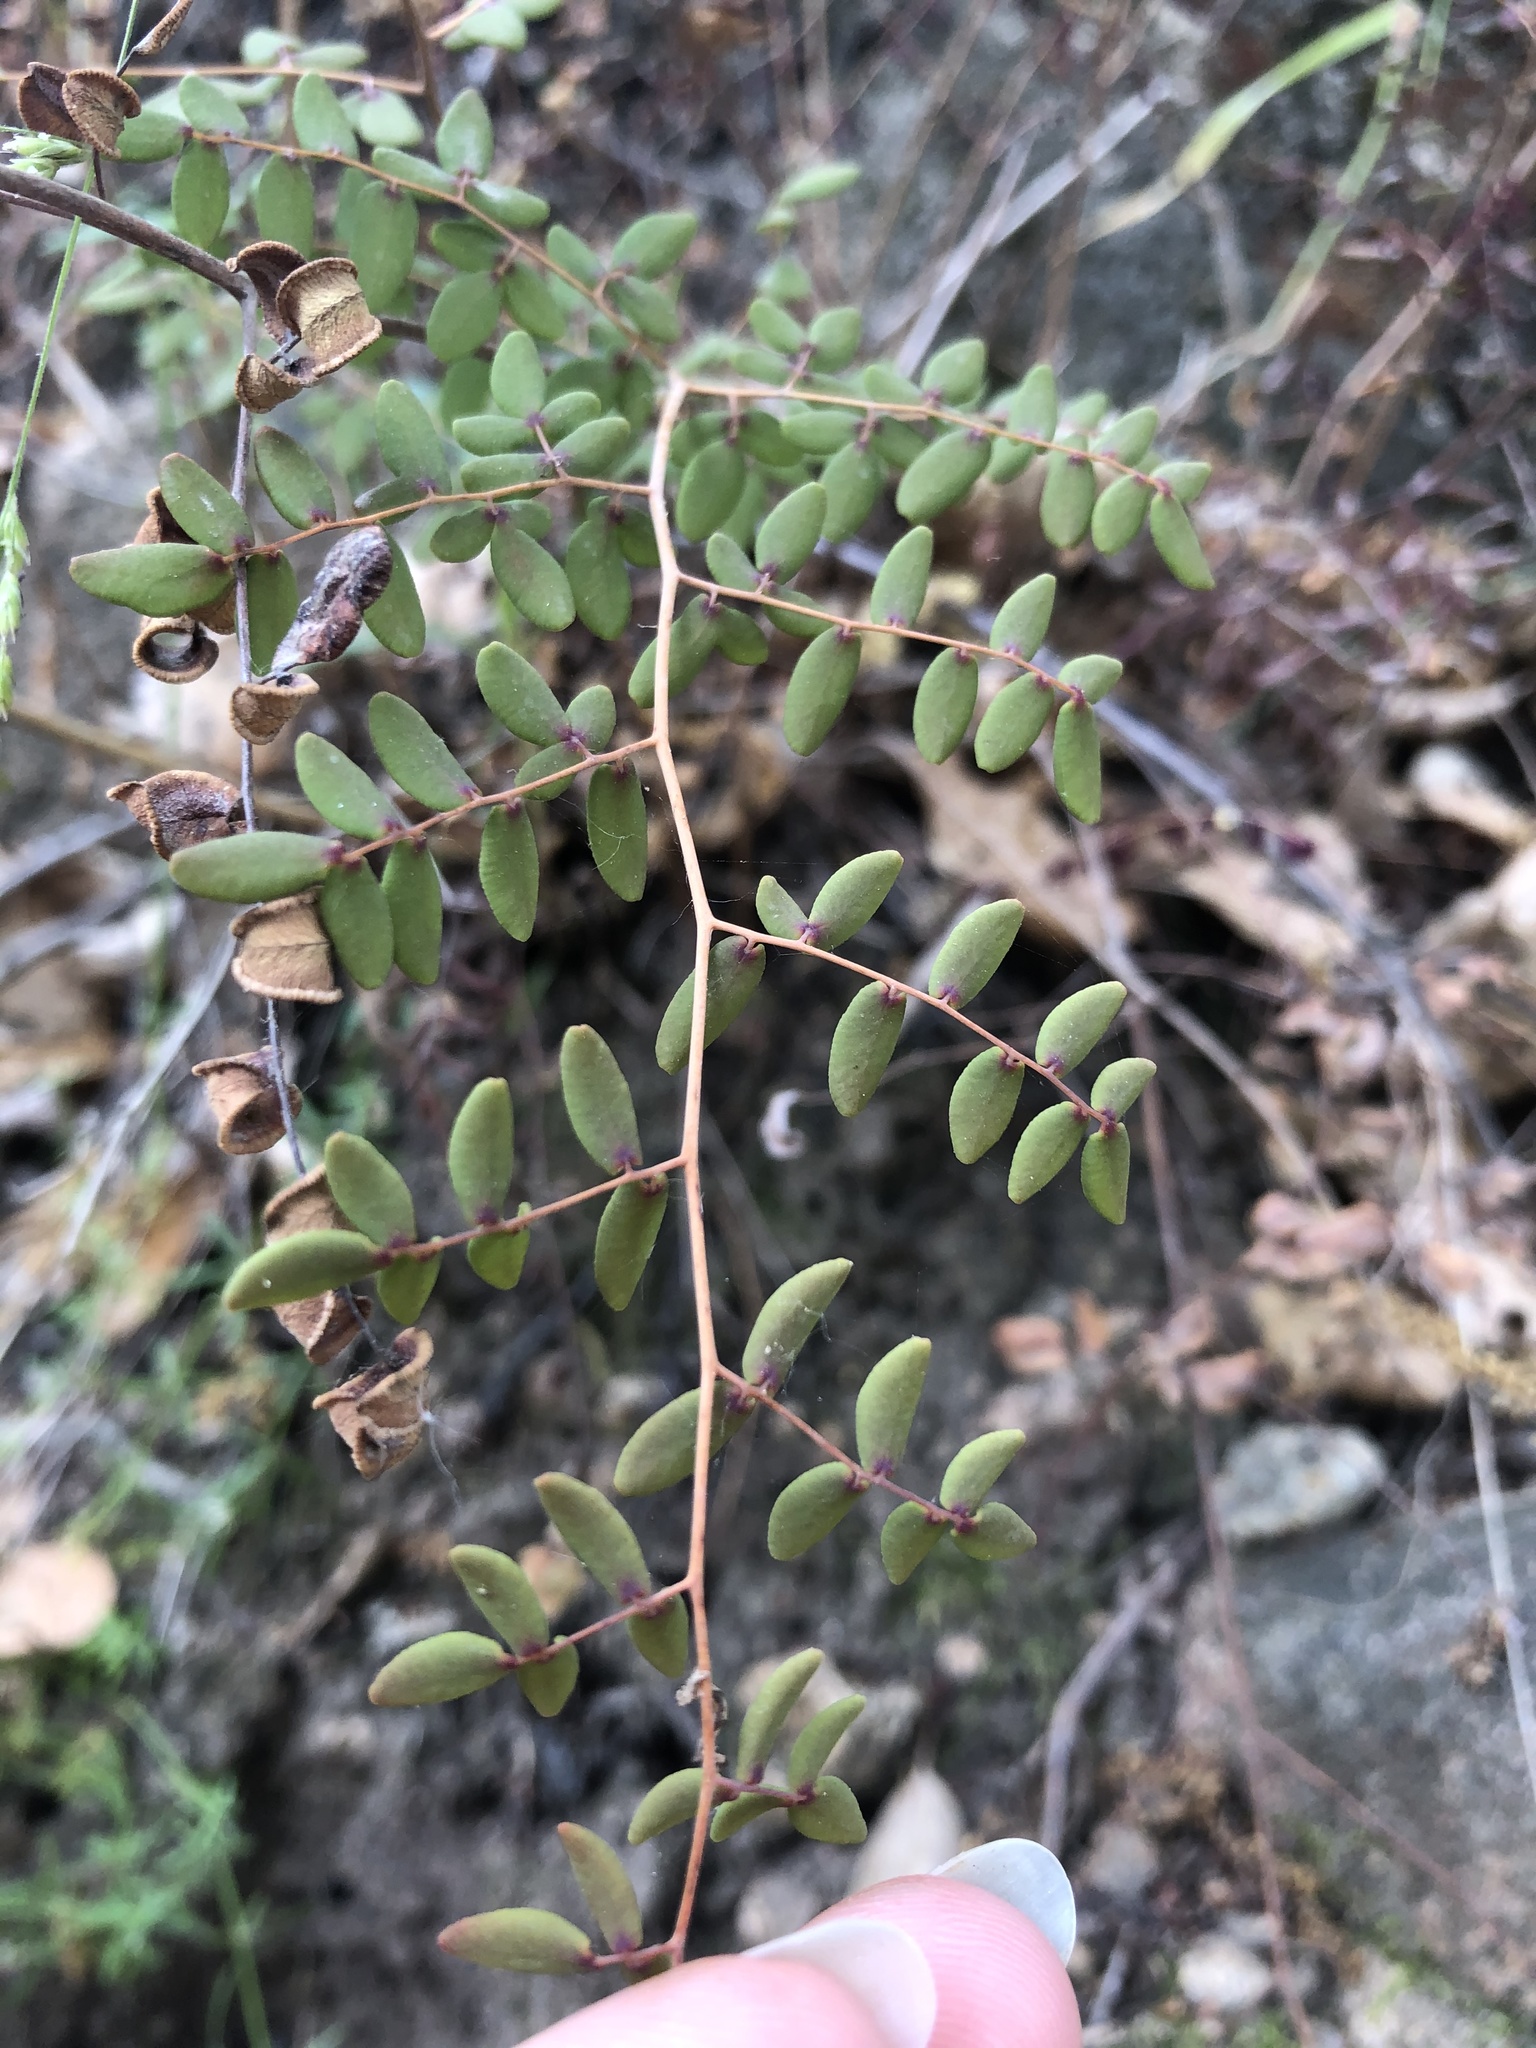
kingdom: Plantae
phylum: Tracheophyta
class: Polypodiopsida
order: Polypodiales
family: Pteridaceae
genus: Pellaea
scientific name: Pellaea andromedifolia
